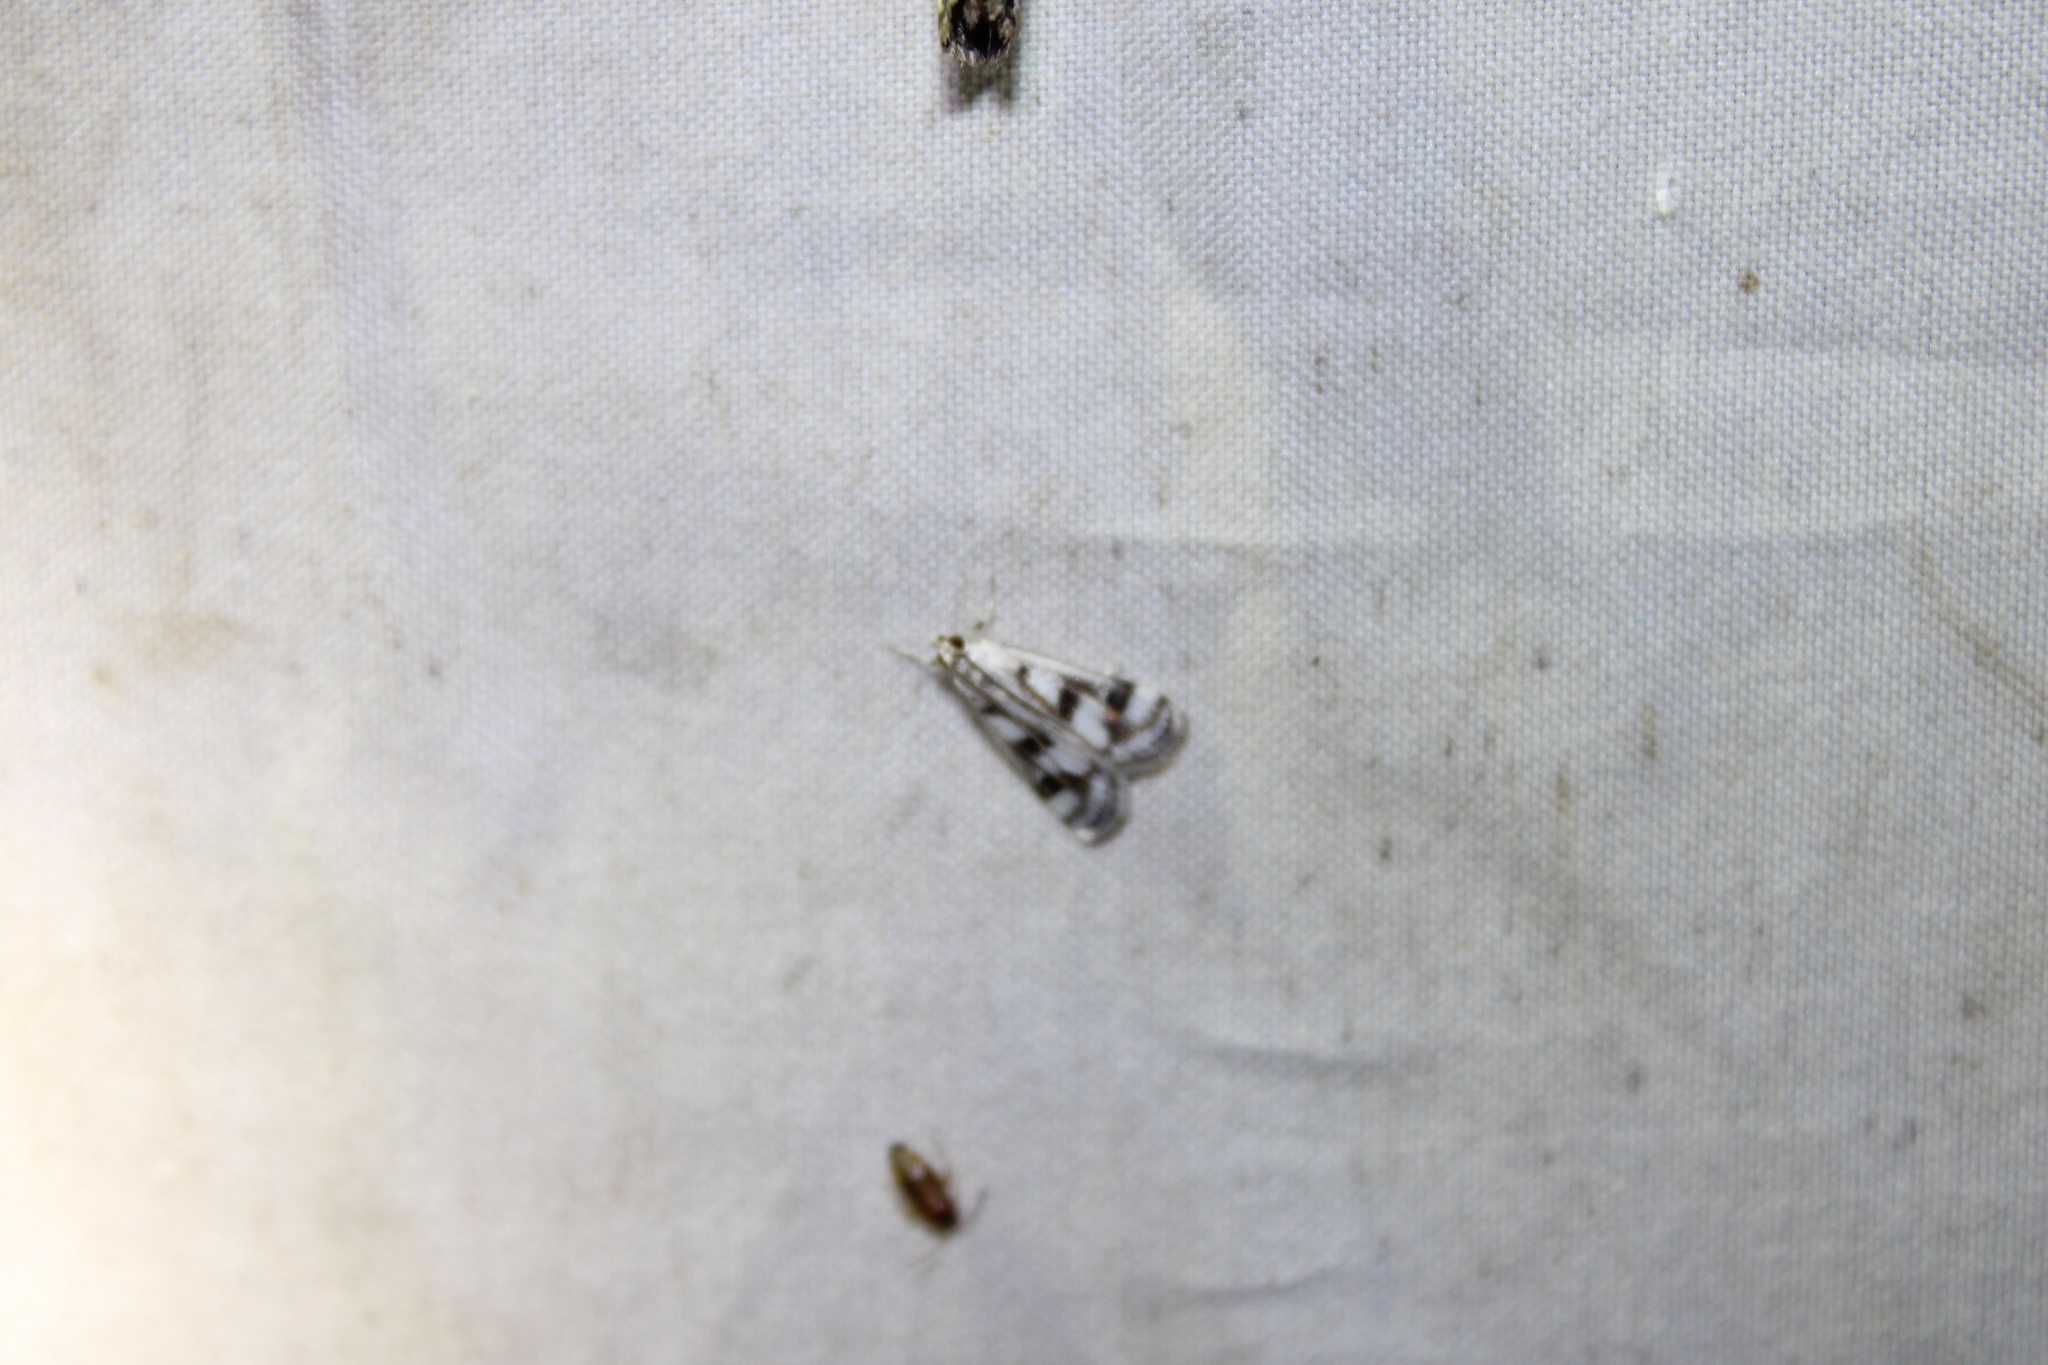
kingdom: Animalia
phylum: Arthropoda
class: Insecta
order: Lepidoptera
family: Crambidae
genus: Parapoynx
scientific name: Parapoynx maculalis
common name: Polymorphic pondweed moth
